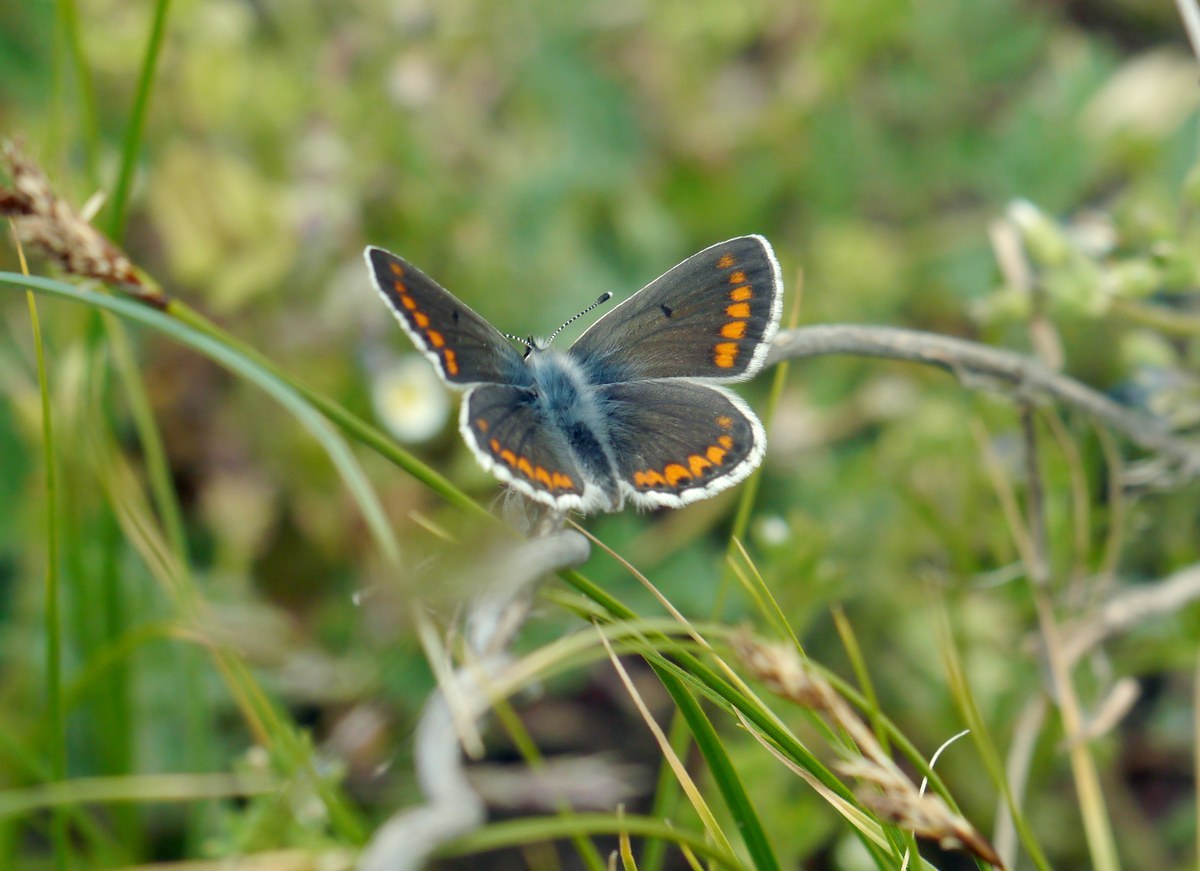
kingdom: Animalia
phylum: Arthropoda
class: Insecta
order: Lepidoptera
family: Lycaenidae
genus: Aricia
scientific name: Aricia agestis
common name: Brown argus
